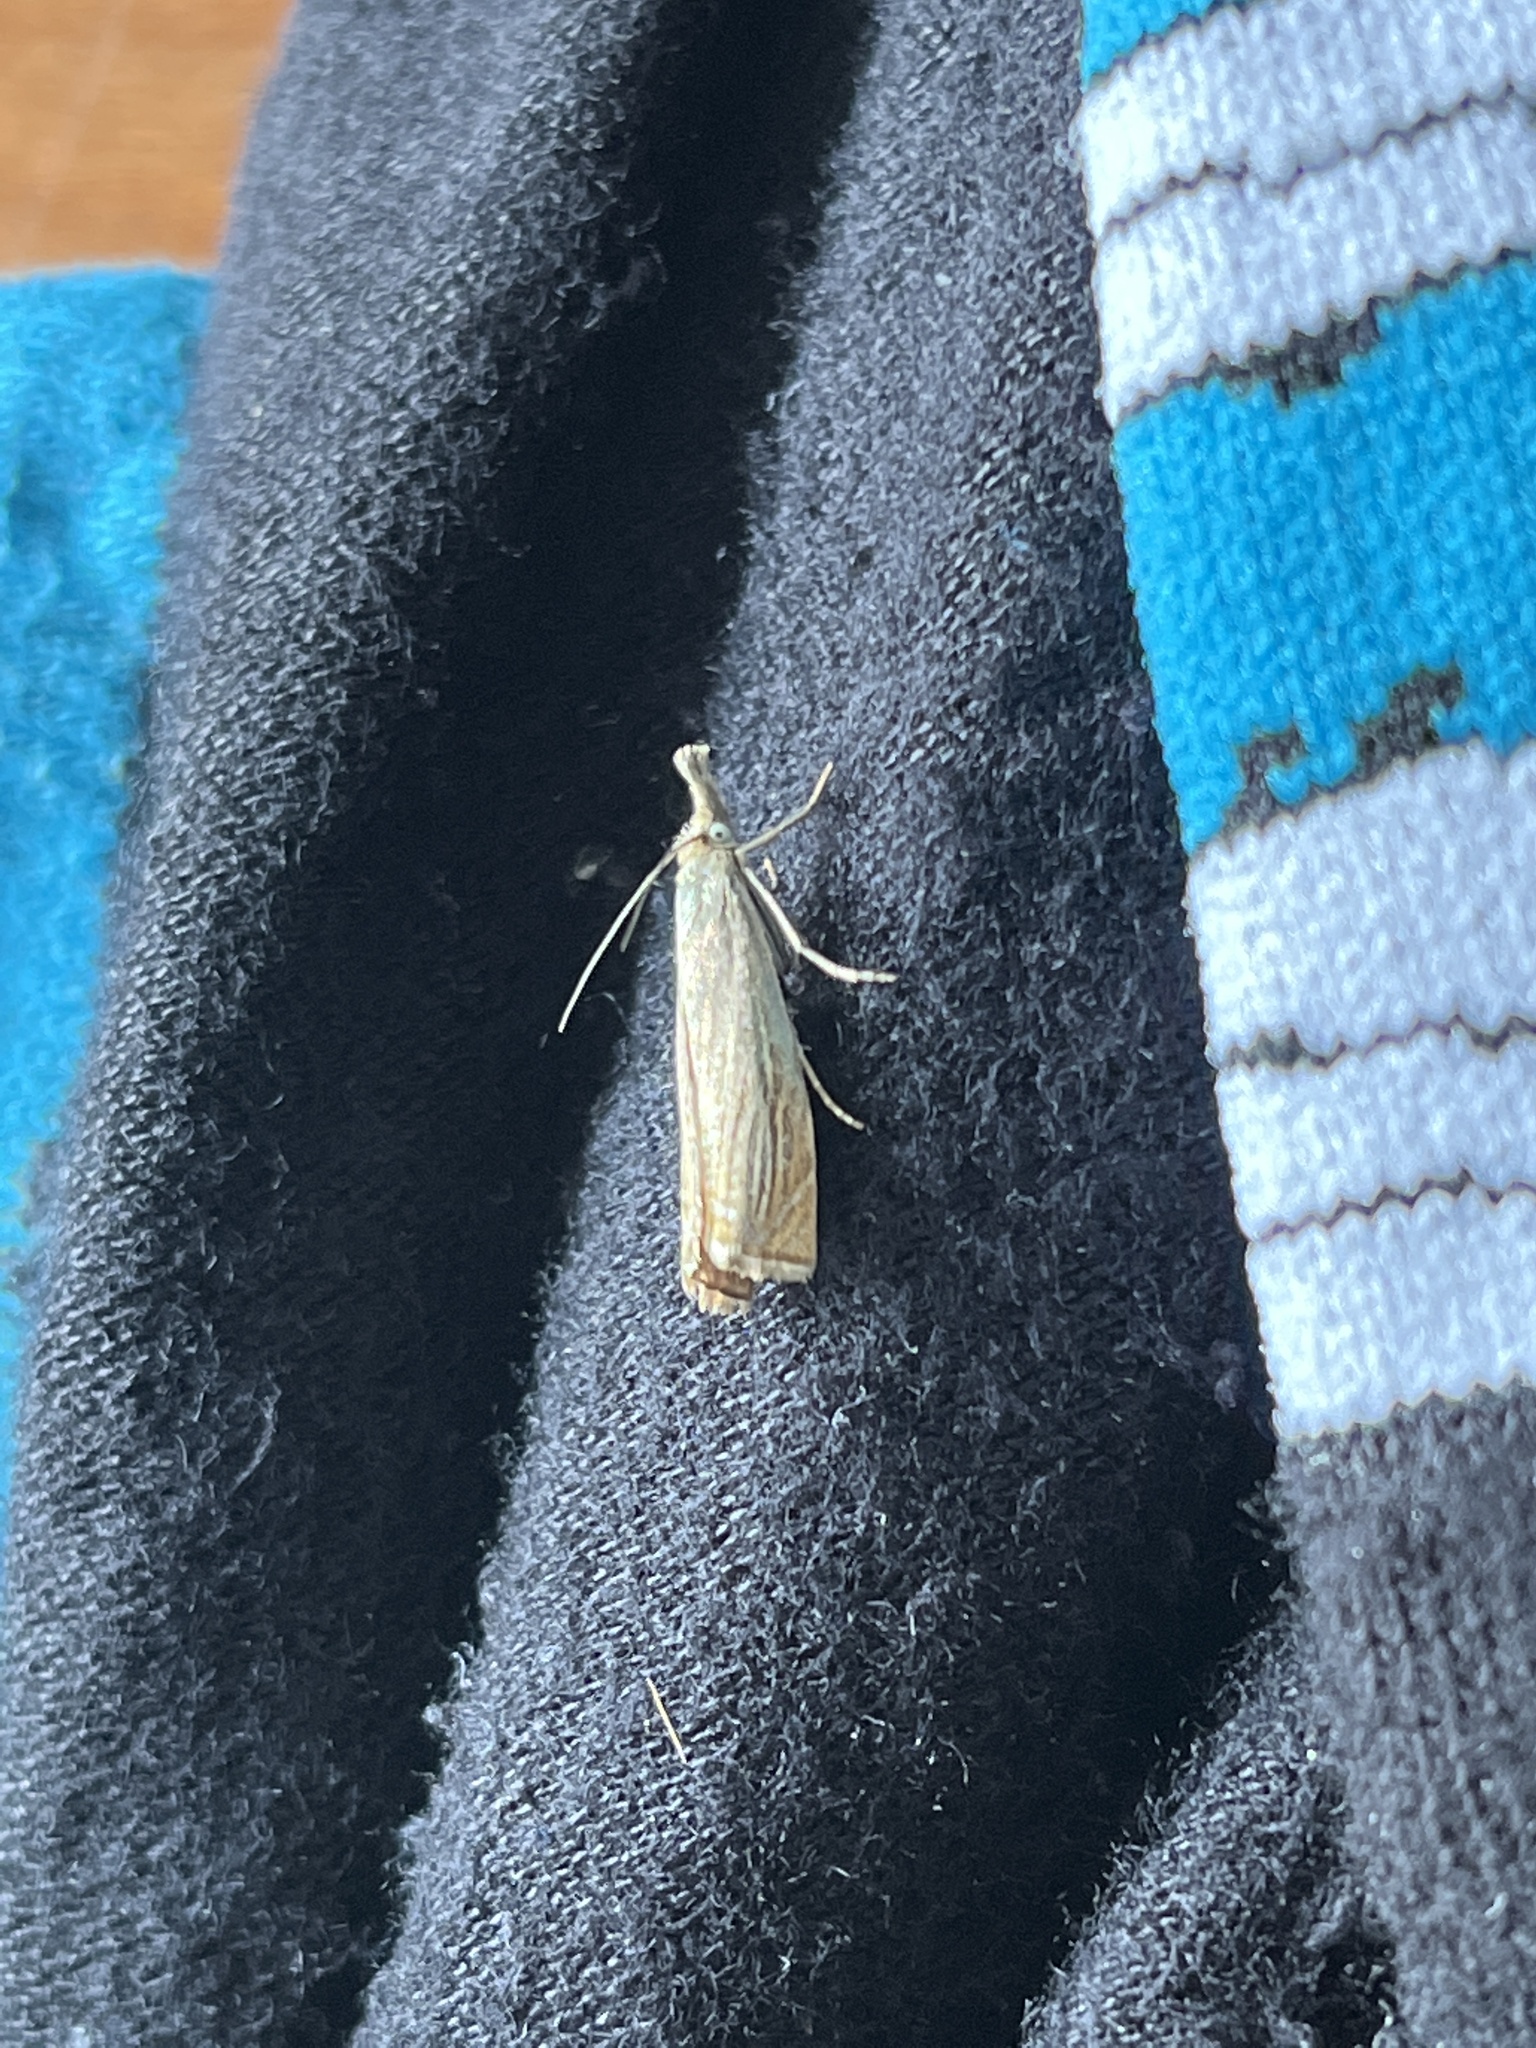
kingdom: Animalia
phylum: Arthropoda
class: Insecta
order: Lepidoptera
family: Crambidae
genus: Chrysoteuchia
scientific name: Chrysoteuchia culmella
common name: Garden grass-veneer
